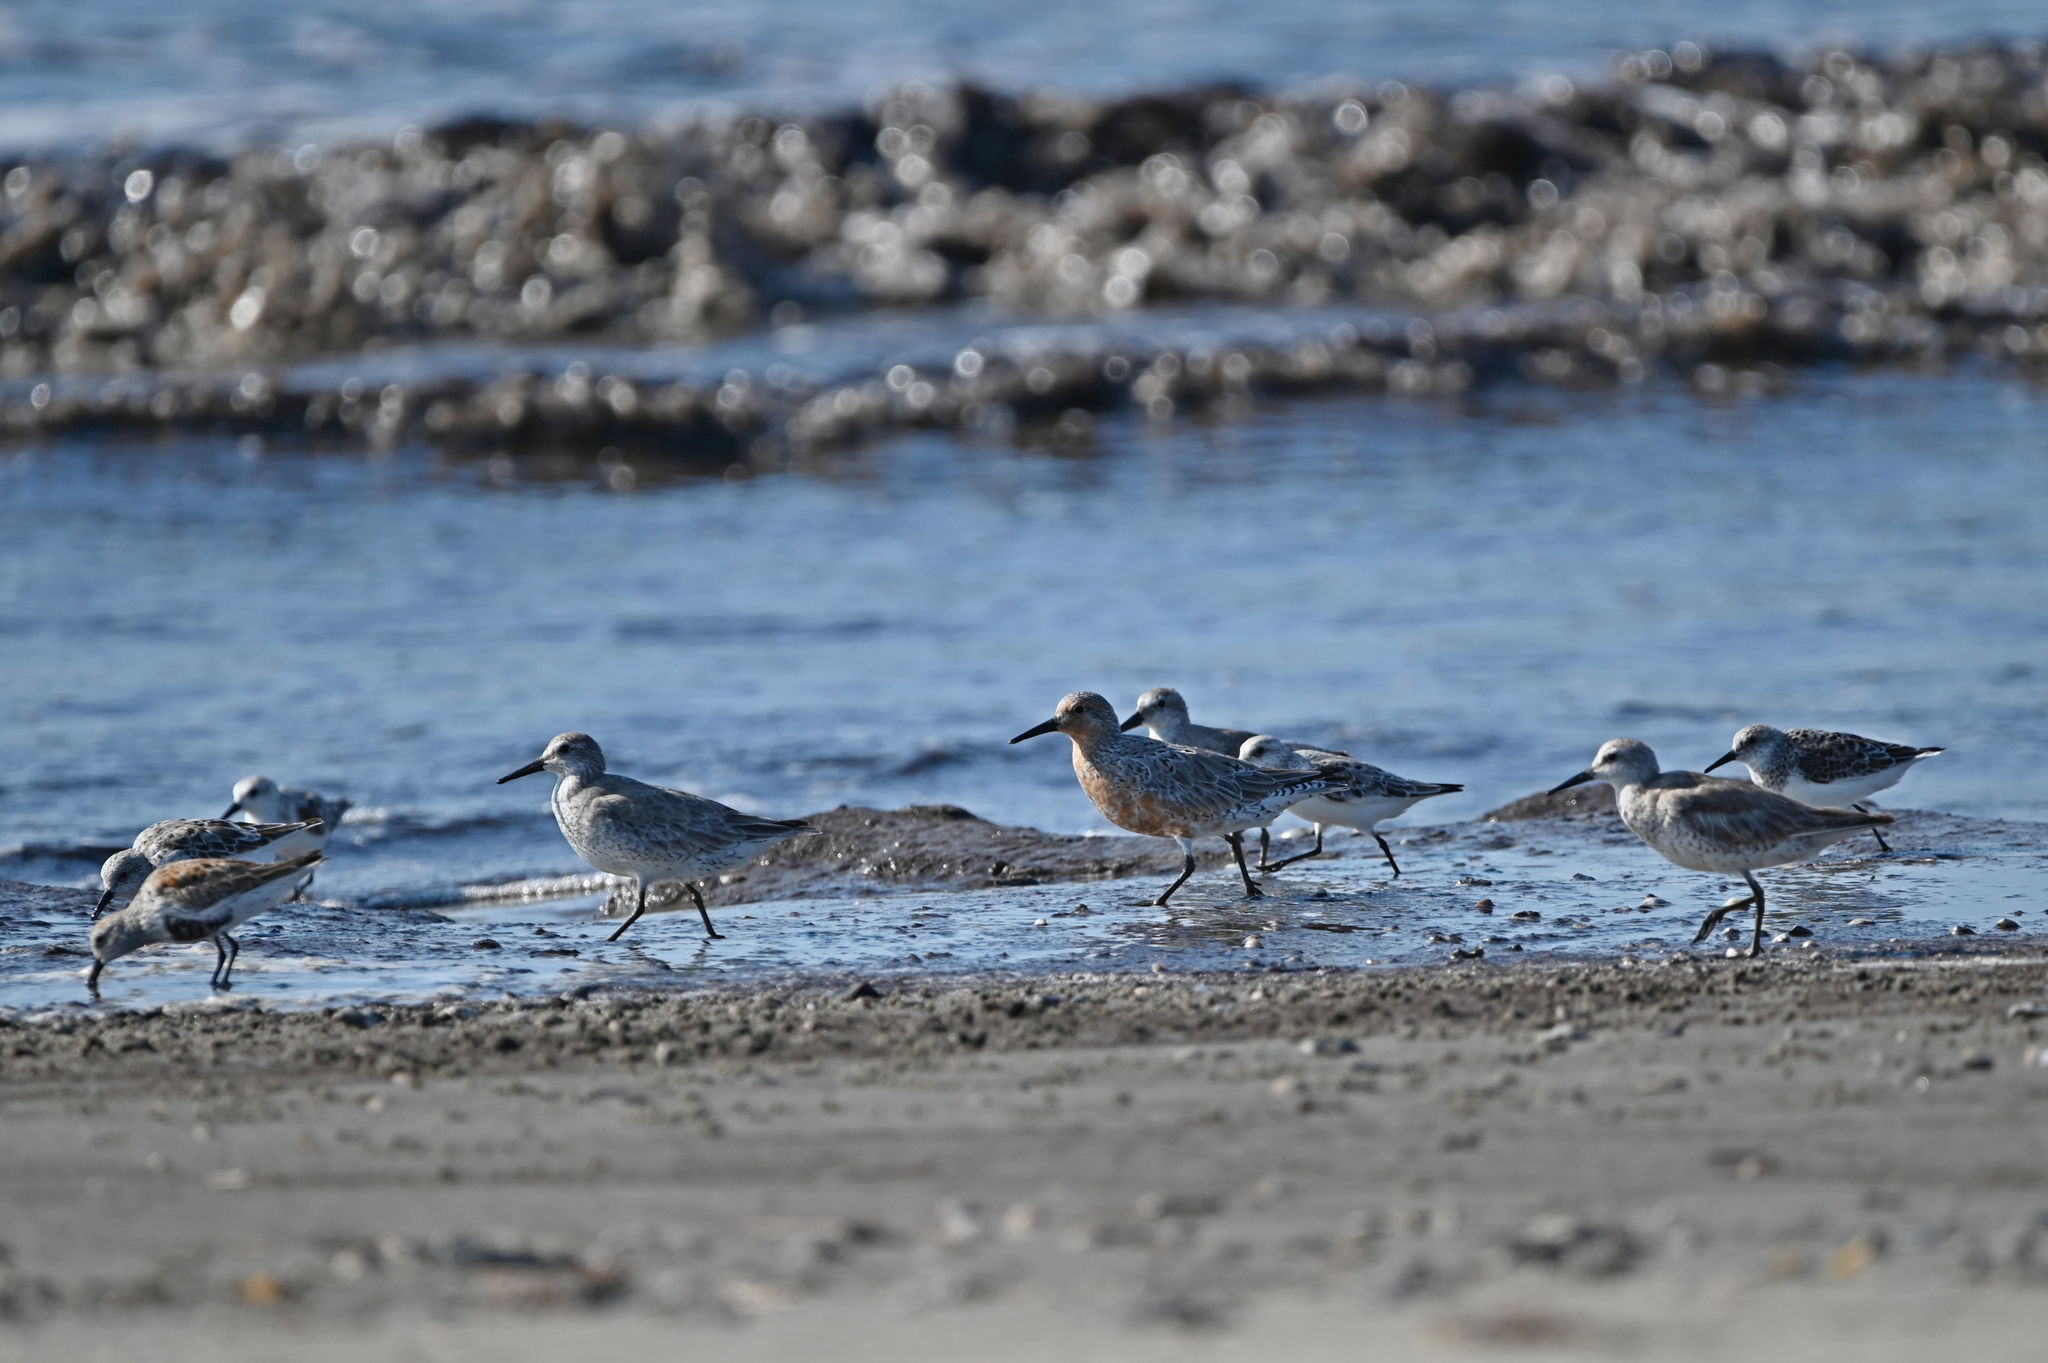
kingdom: Animalia
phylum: Chordata
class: Aves
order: Charadriiformes
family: Scolopacidae
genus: Calidris
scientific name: Calidris canutus
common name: Red knot
